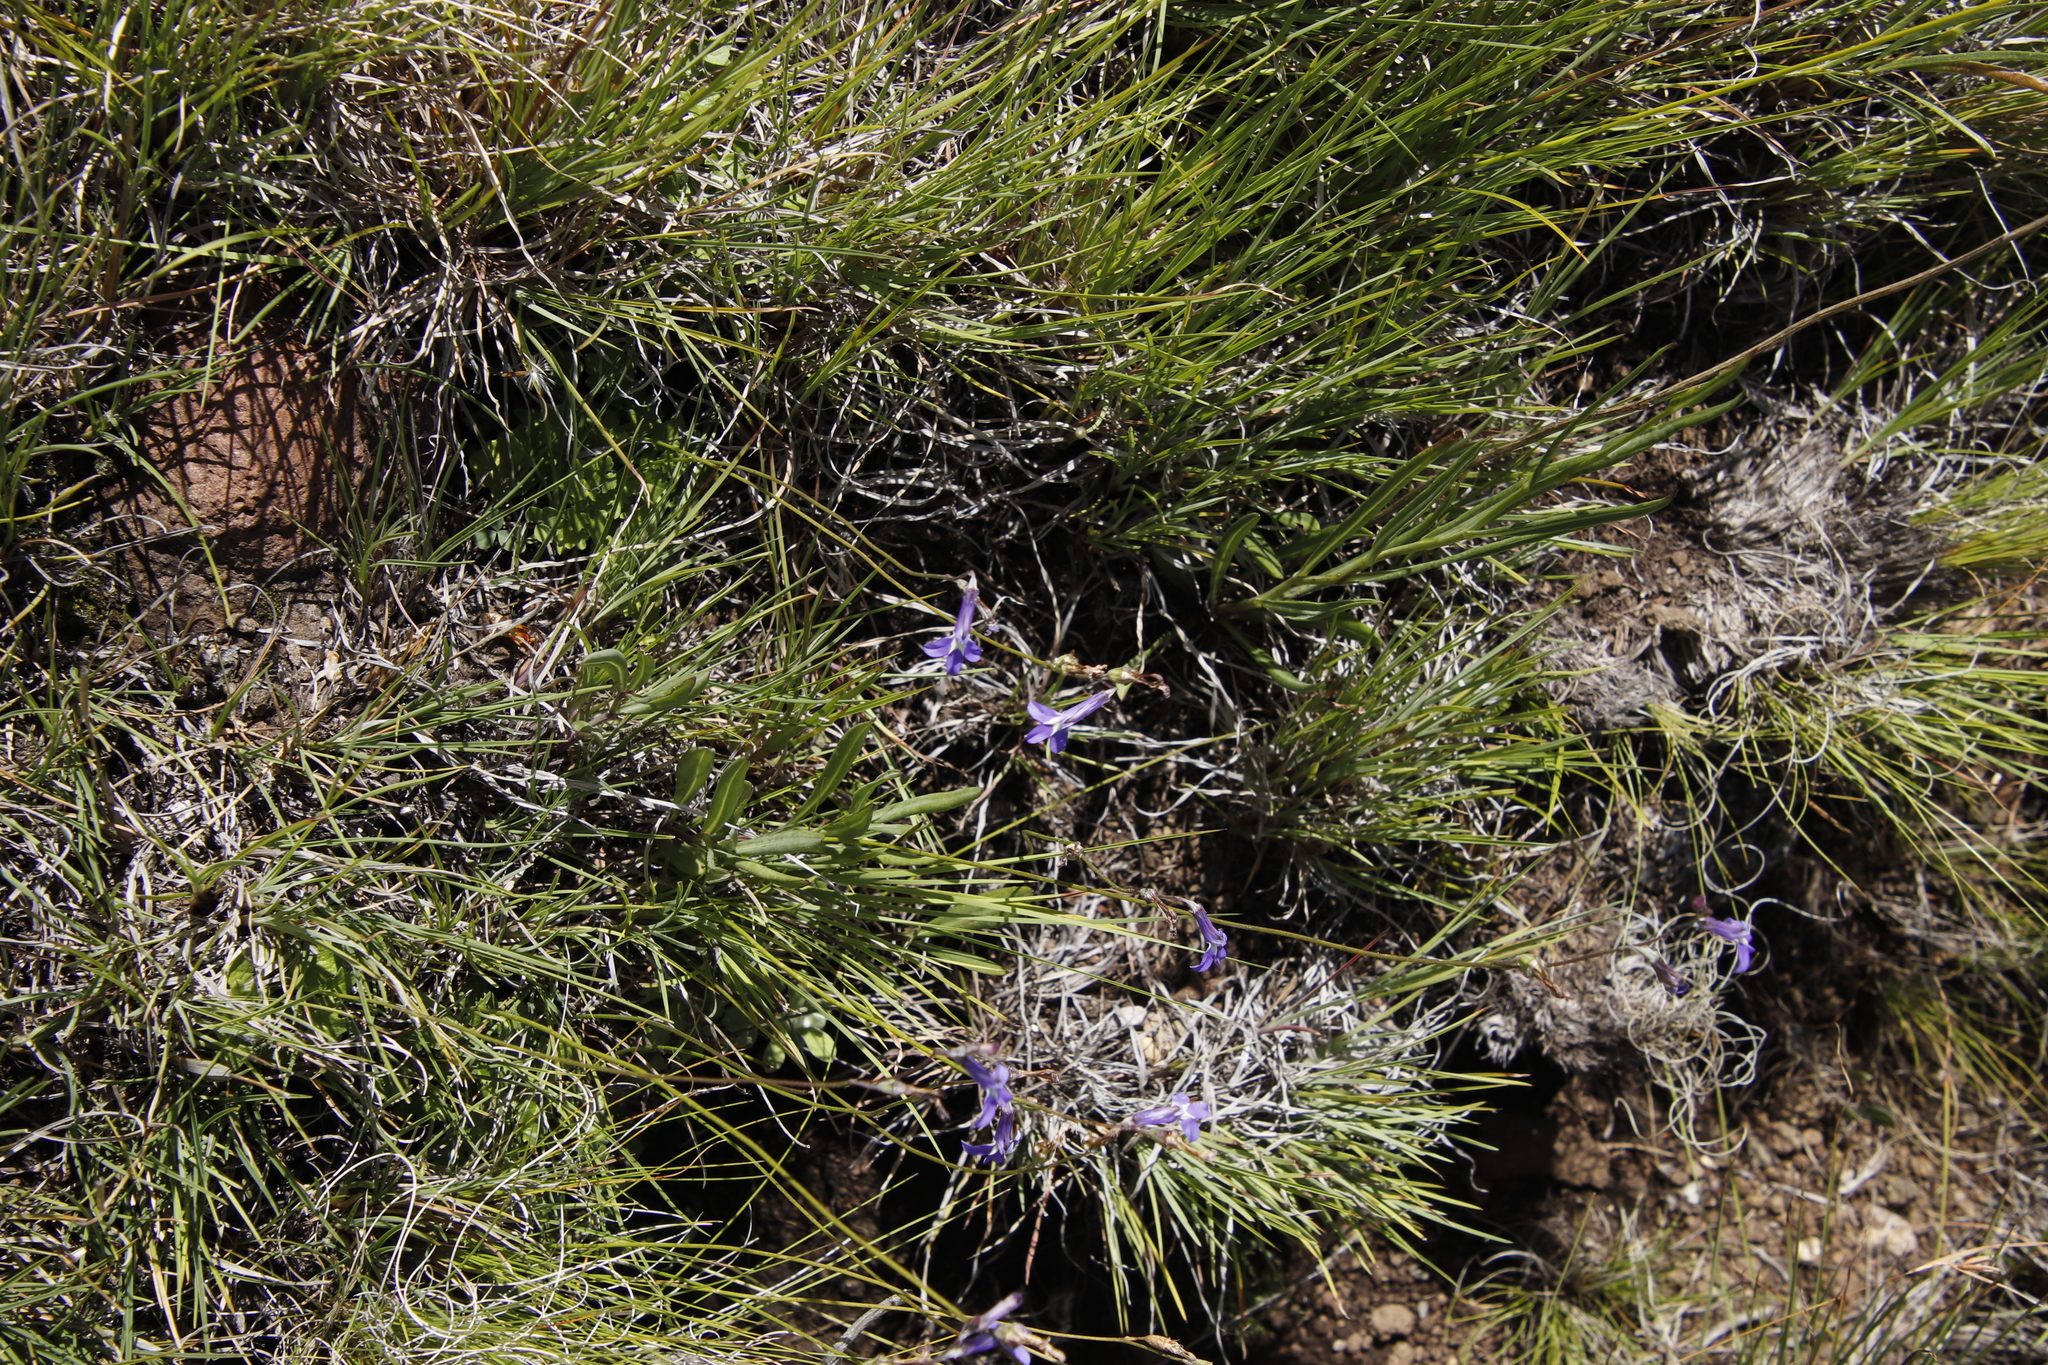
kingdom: Plantae
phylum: Tracheophyta
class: Magnoliopsida
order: Asterales
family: Campanulaceae
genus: Lobelia
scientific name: Lobelia preslii
